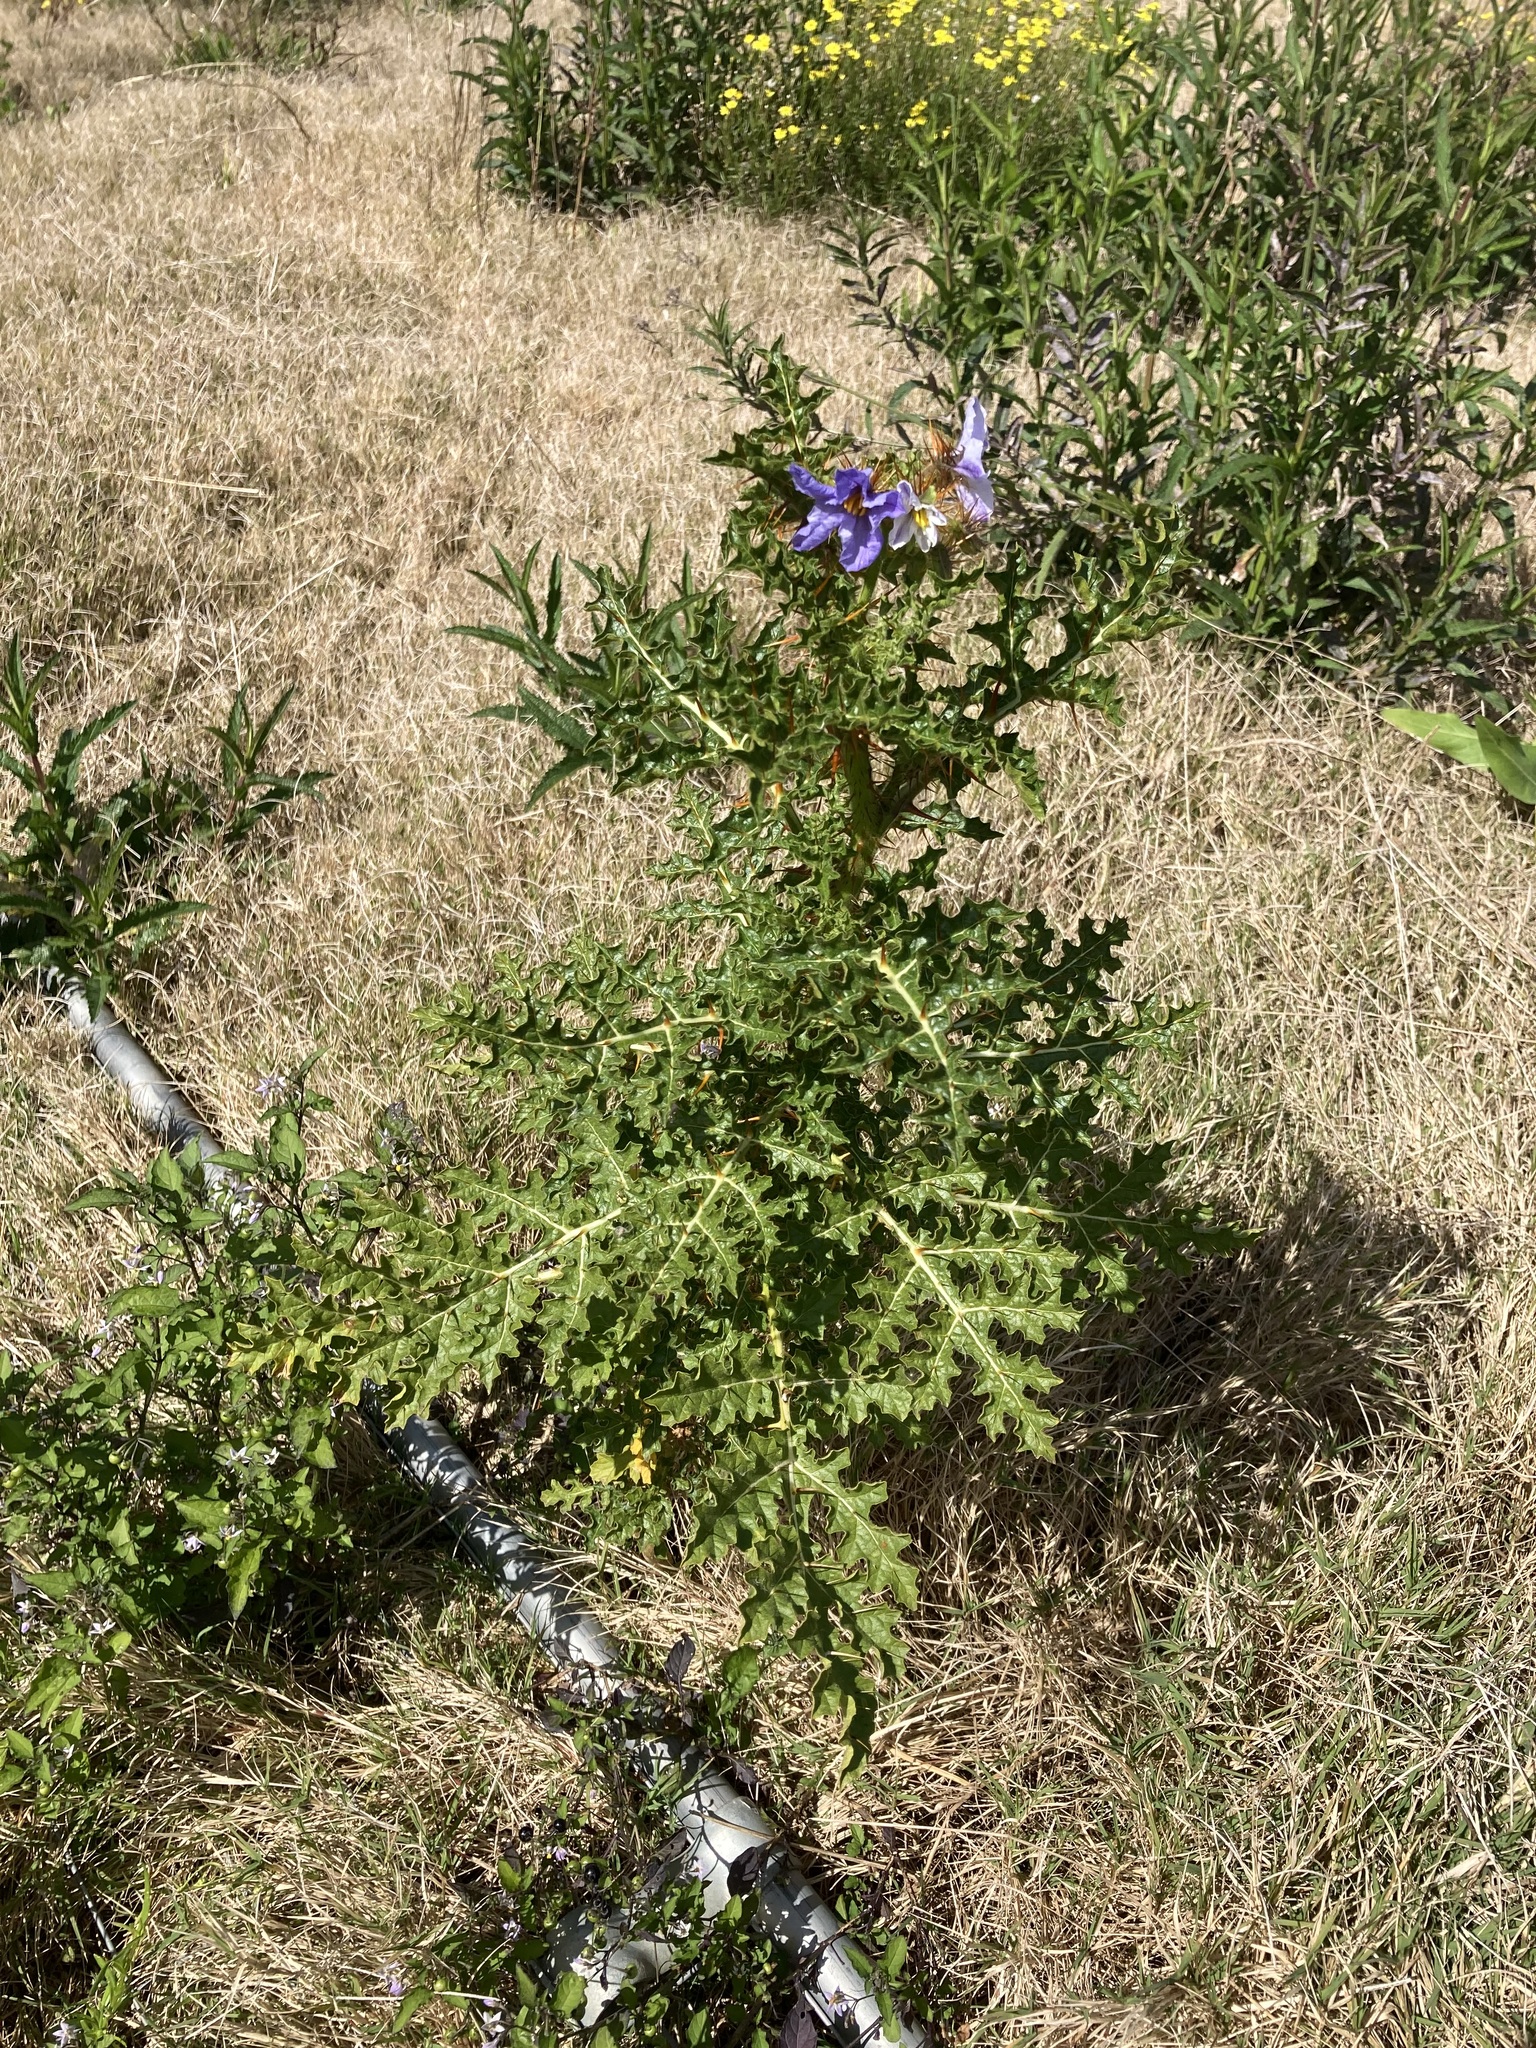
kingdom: Plantae
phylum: Tracheophyta
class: Magnoliopsida
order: Solanales
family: Solanaceae
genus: Solanum
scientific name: Solanum sisymbriifolium
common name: Red buffalo-bur
